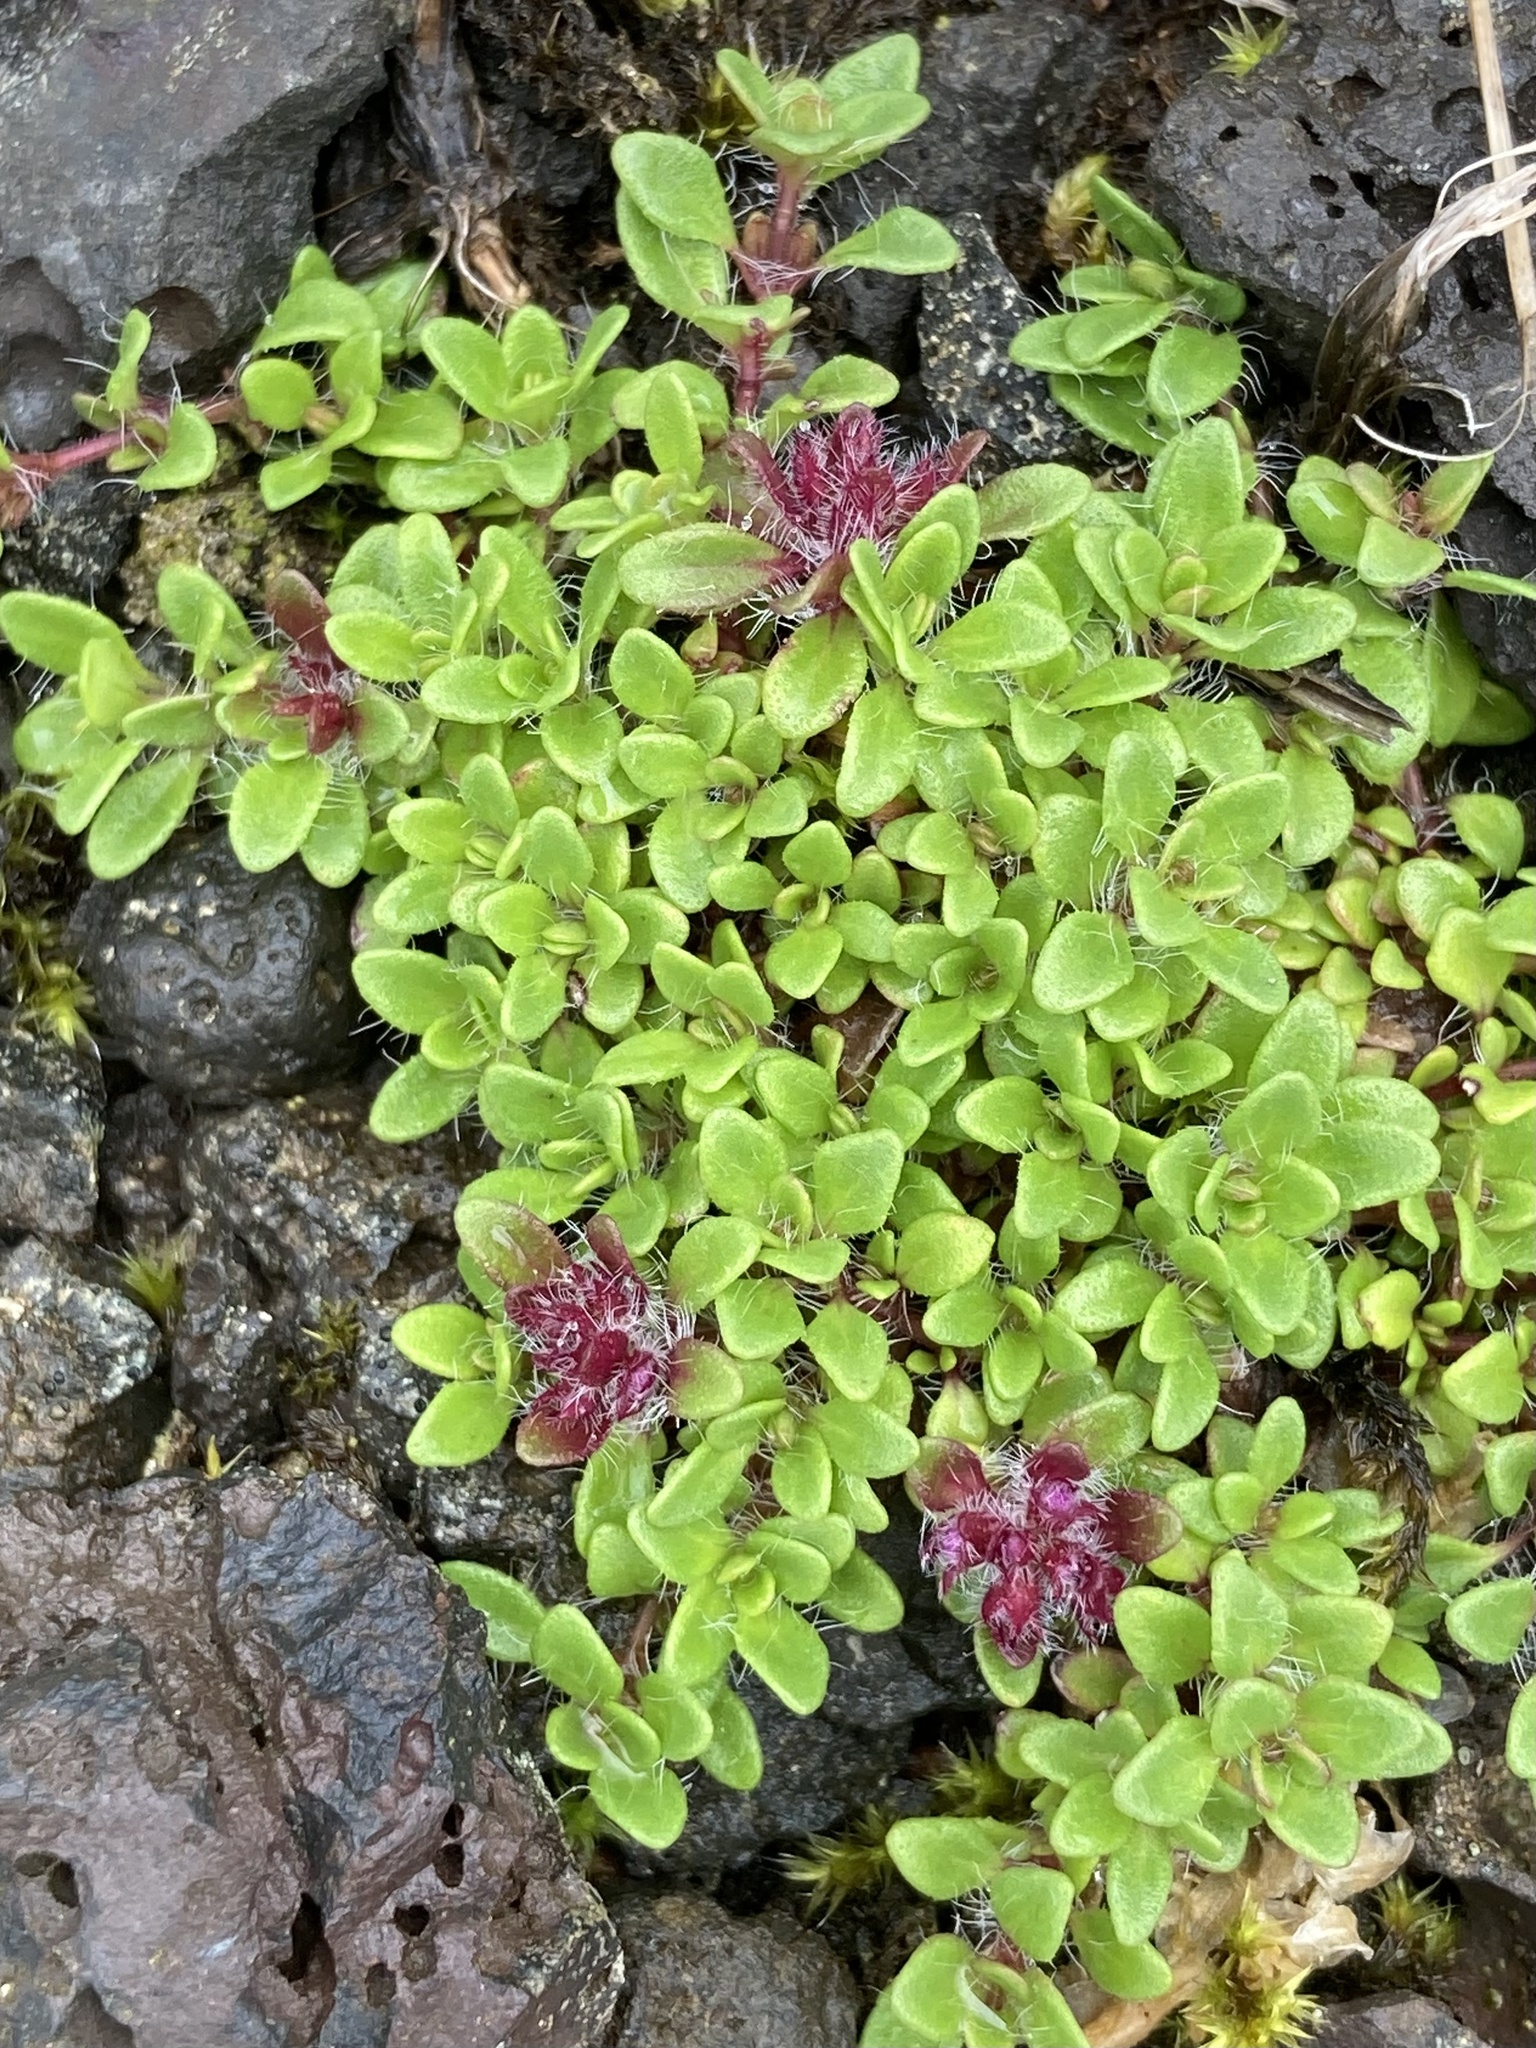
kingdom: Plantae
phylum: Tracheophyta
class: Magnoliopsida
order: Lamiales
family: Lamiaceae
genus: Thymus
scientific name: Thymus praecox
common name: Wild thyme
